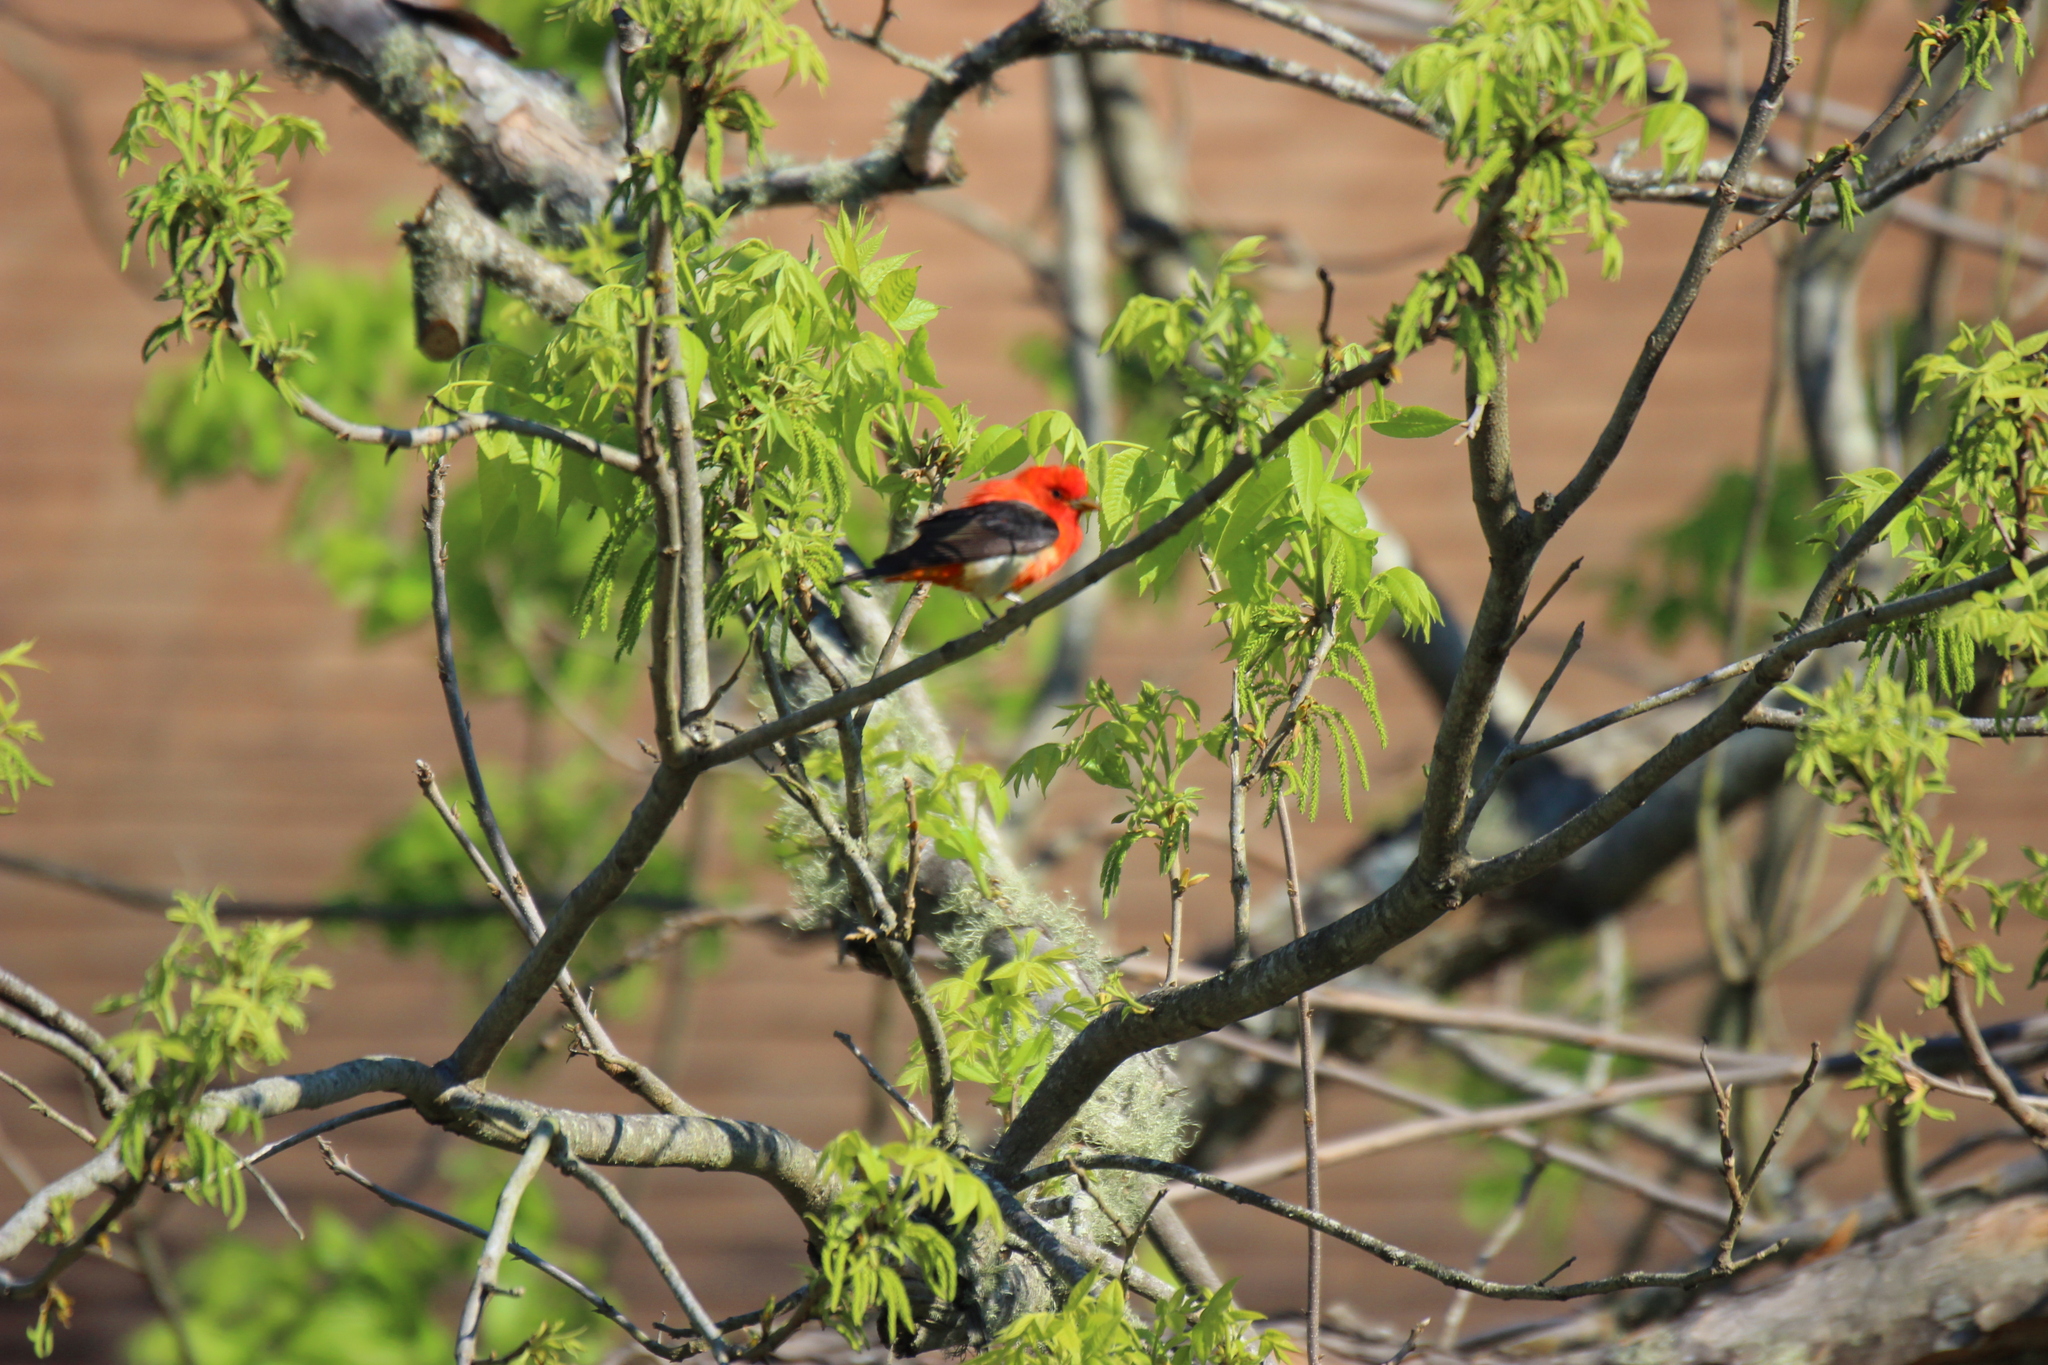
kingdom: Animalia
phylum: Chordata
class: Aves
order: Passeriformes
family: Cardinalidae
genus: Piranga
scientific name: Piranga olivacea
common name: Scarlet tanager
